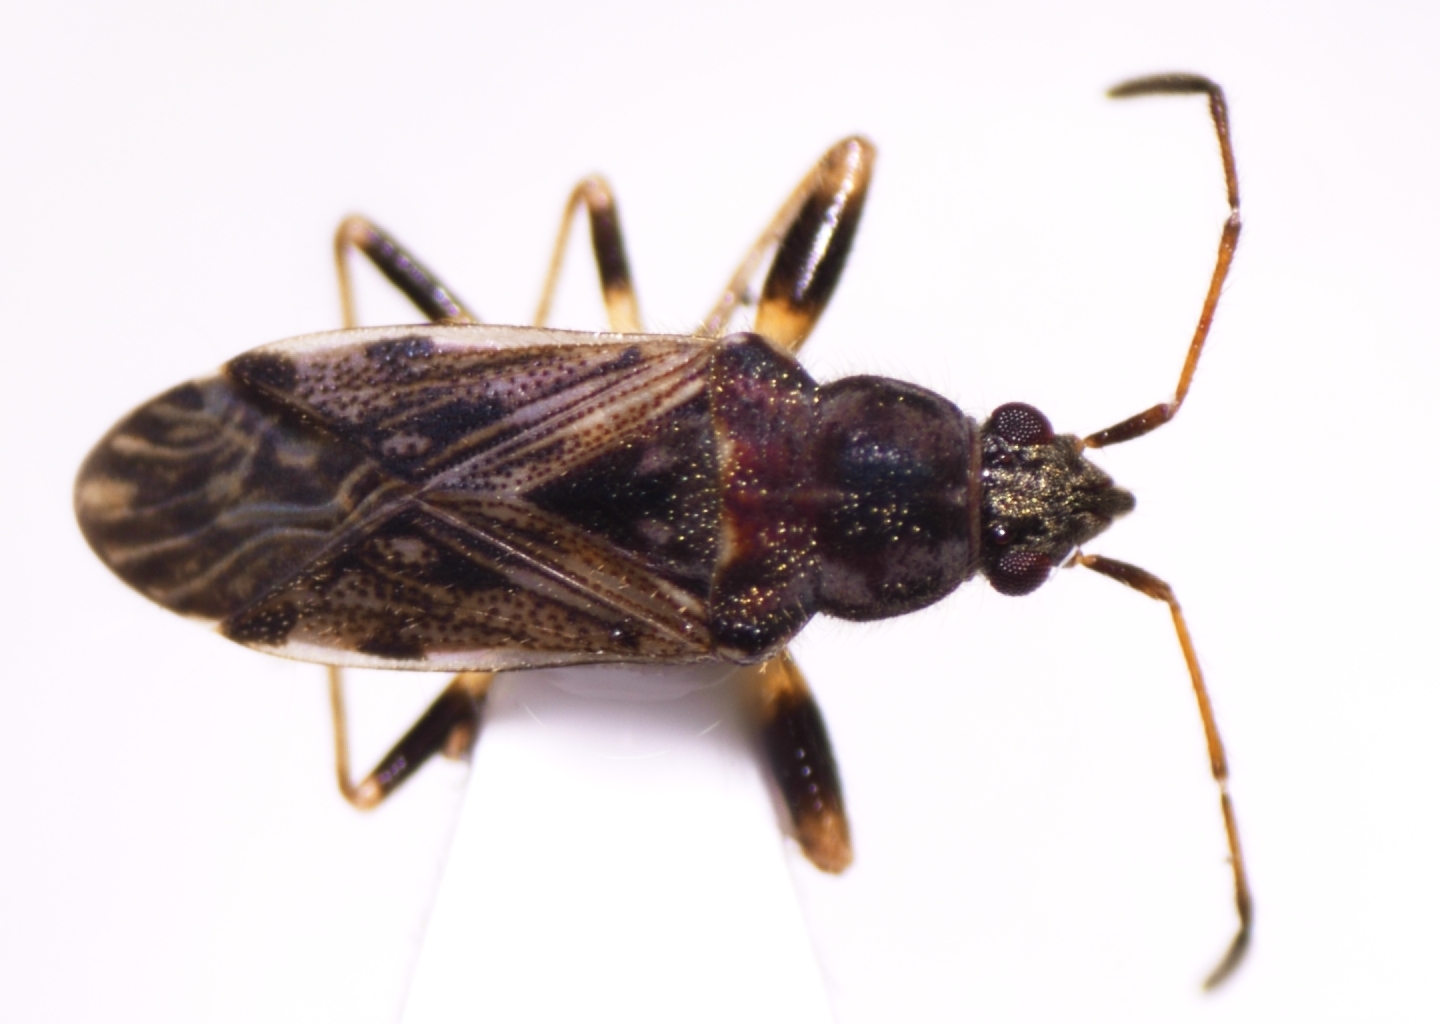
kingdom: Animalia
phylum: Arthropoda
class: Insecta
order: Hemiptera
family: Rhyparochromidae
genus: Remaudiereana
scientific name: Remaudiereana nigriceps
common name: Seed bug
